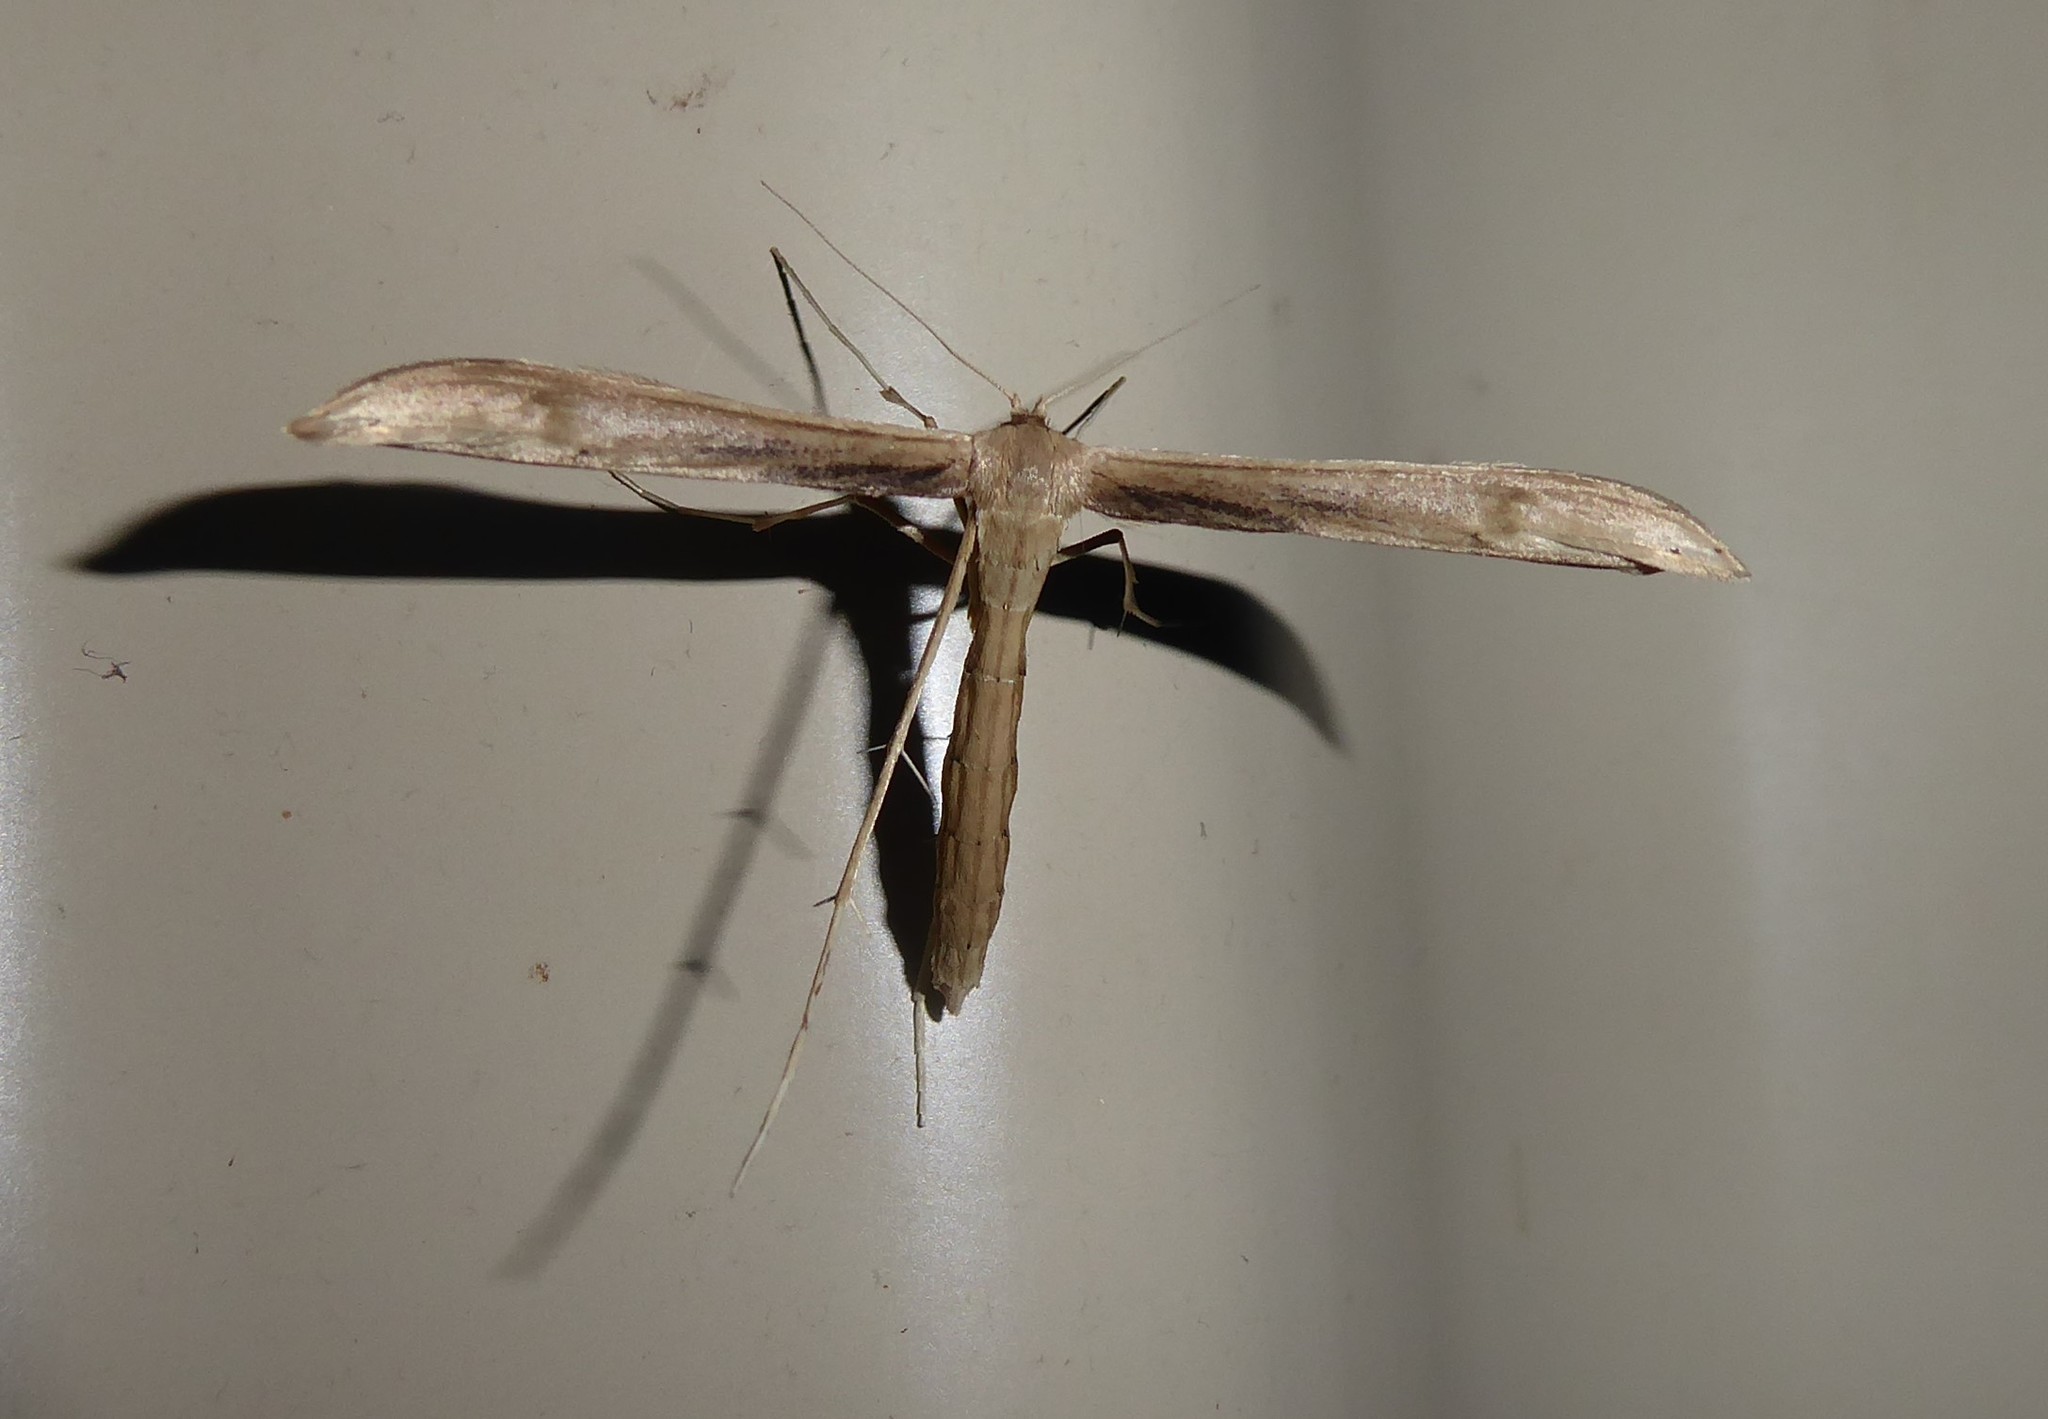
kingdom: Animalia
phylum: Arthropoda
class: Insecta
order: Lepidoptera
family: Pterophoridae
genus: Hellinsia
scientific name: Hellinsia balanotes
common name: Baccharis borer
